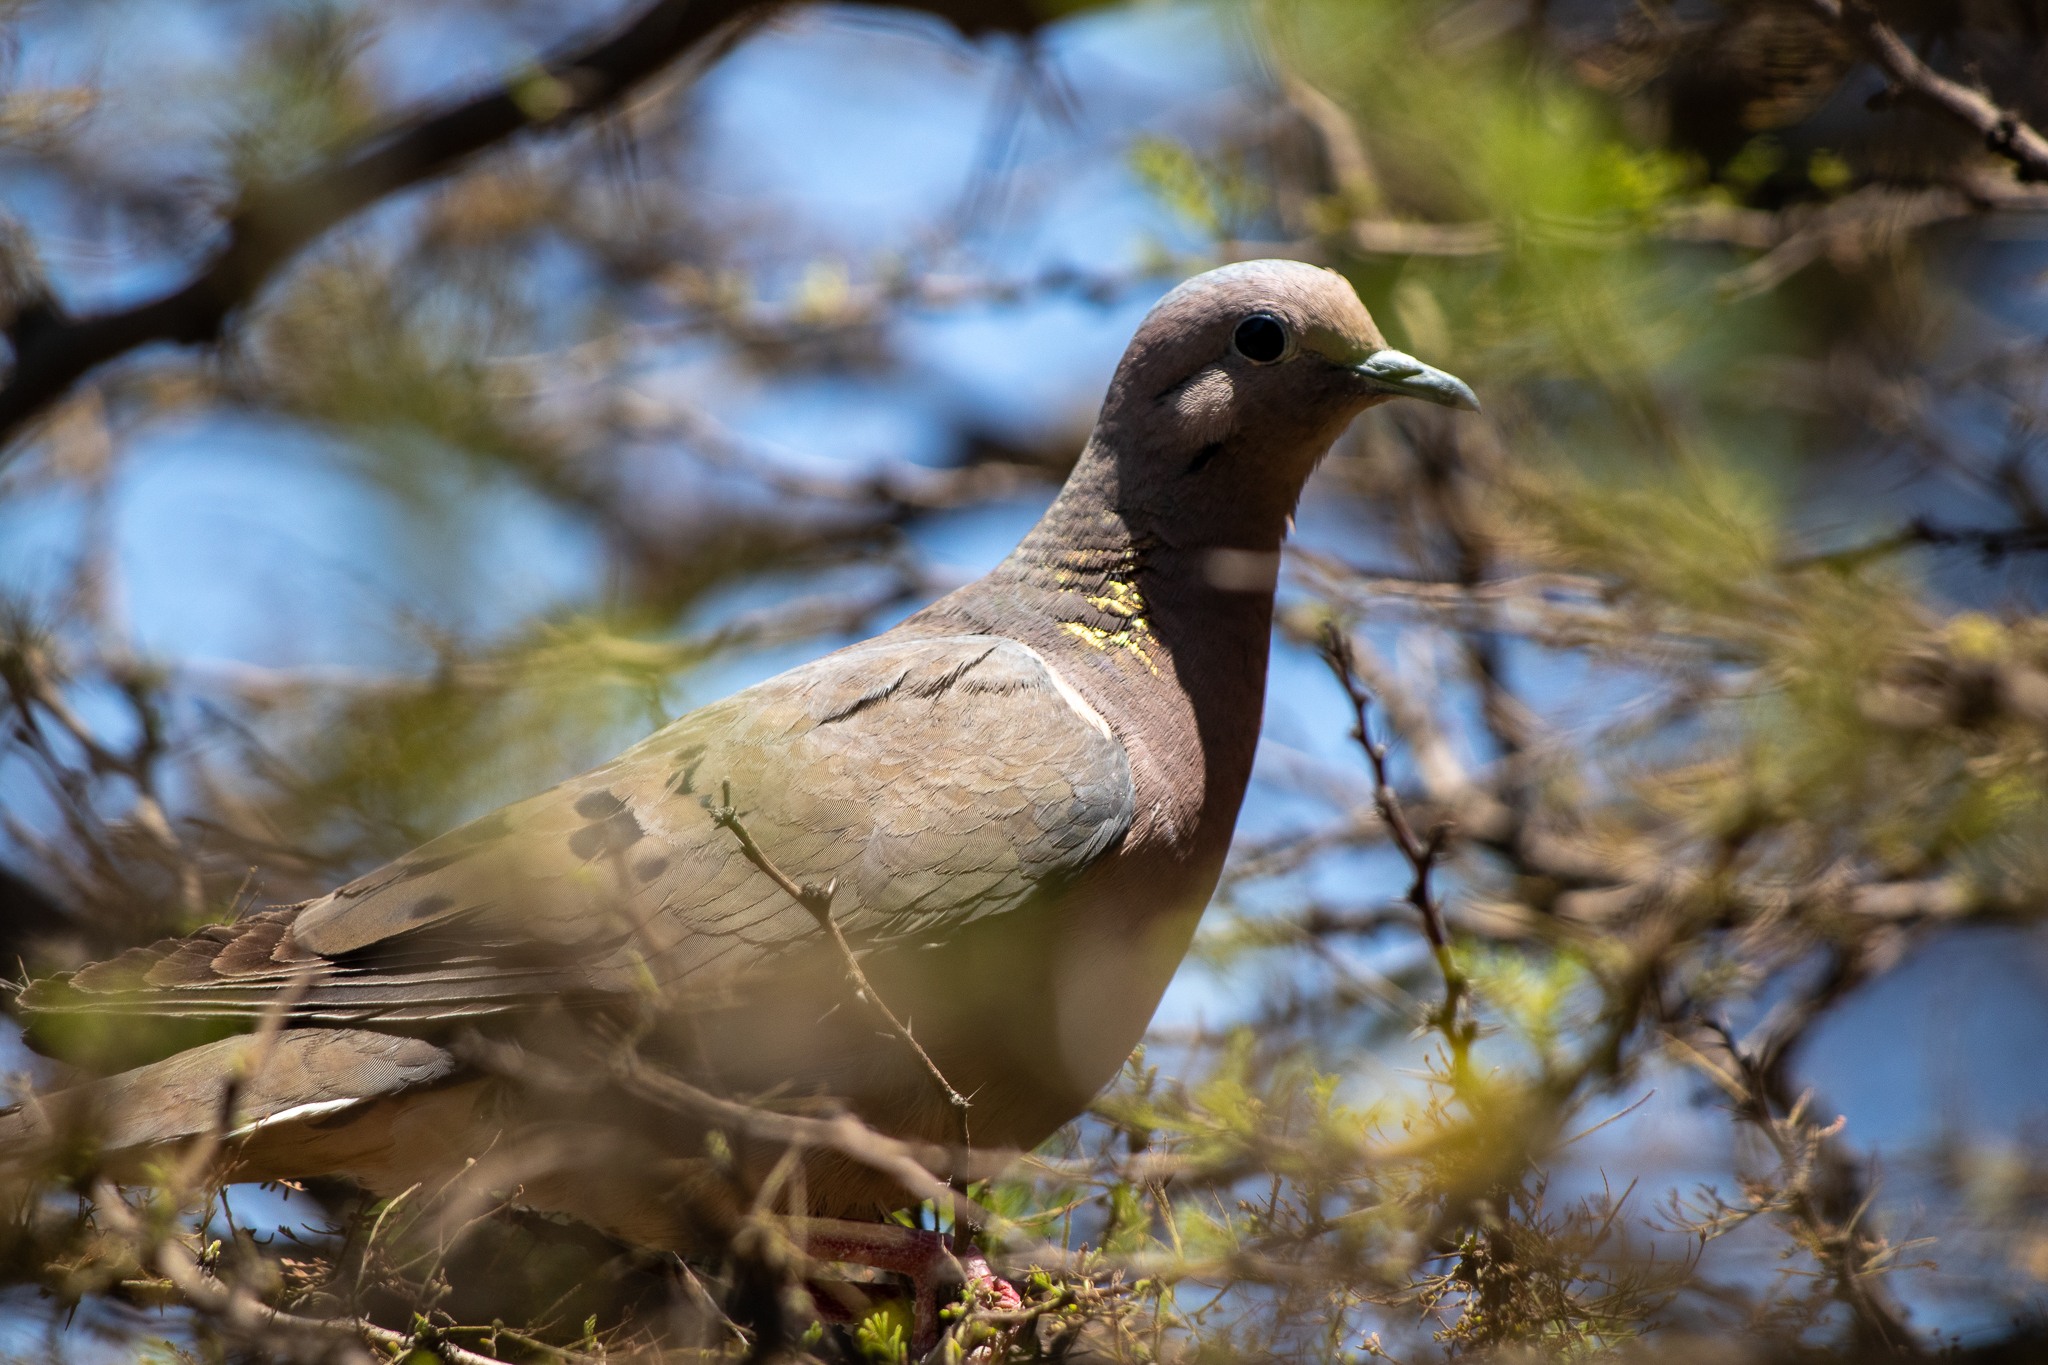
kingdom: Animalia
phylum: Chordata
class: Aves
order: Columbiformes
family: Columbidae
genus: Zenaida
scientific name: Zenaida auriculata
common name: Eared dove
